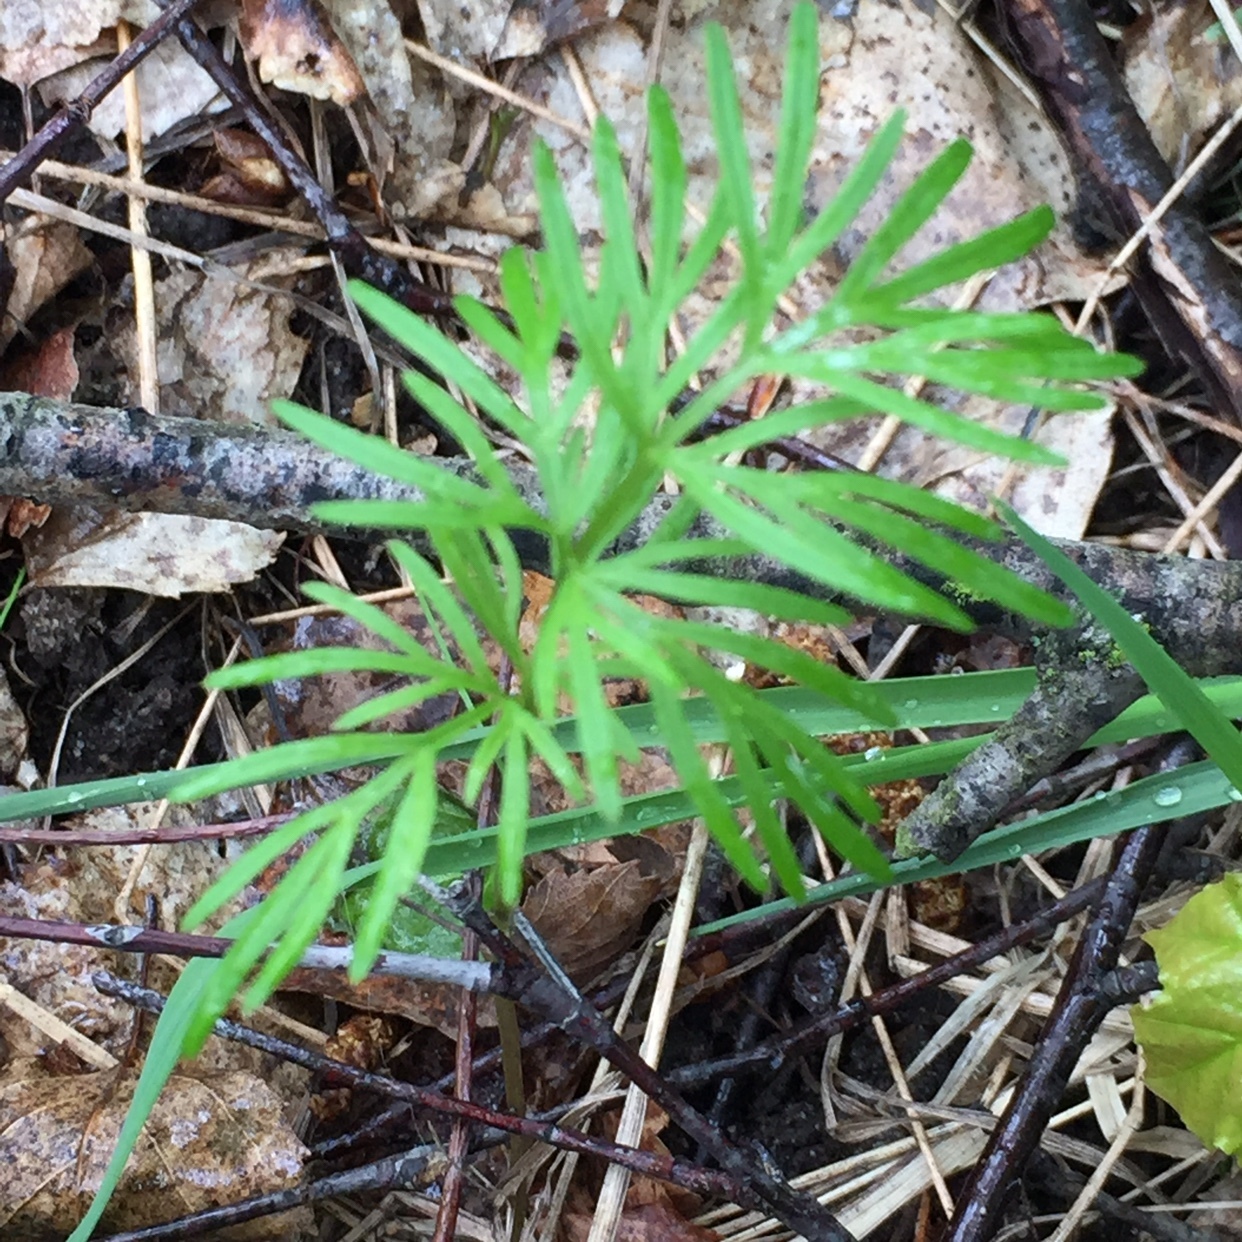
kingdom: Plantae
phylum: Tracheophyta
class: Magnoliopsida
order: Apiales
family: Apiaceae
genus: Kadenia
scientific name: Kadenia dubia
